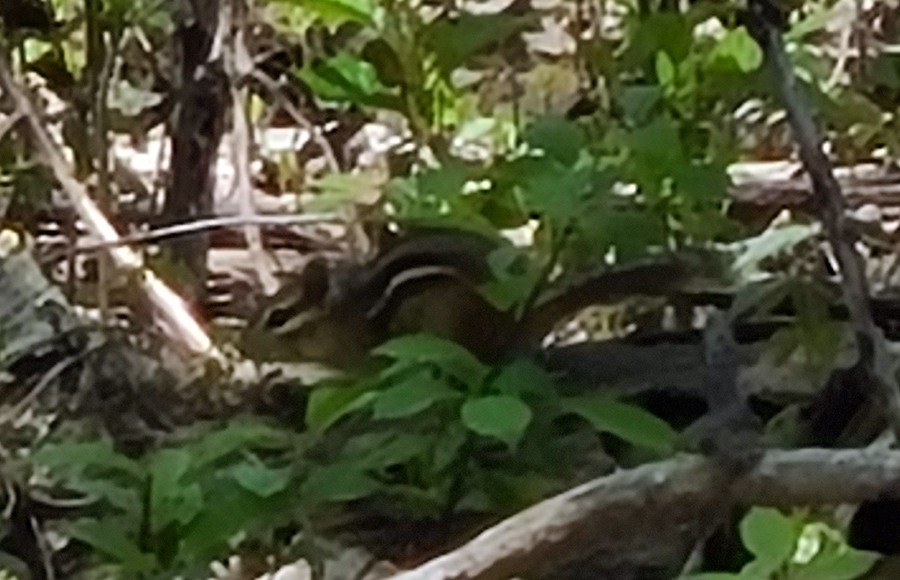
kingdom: Animalia
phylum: Chordata
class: Mammalia
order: Rodentia
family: Sciuridae
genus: Tamias
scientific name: Tamias striatus
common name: Eastern chipmunk
